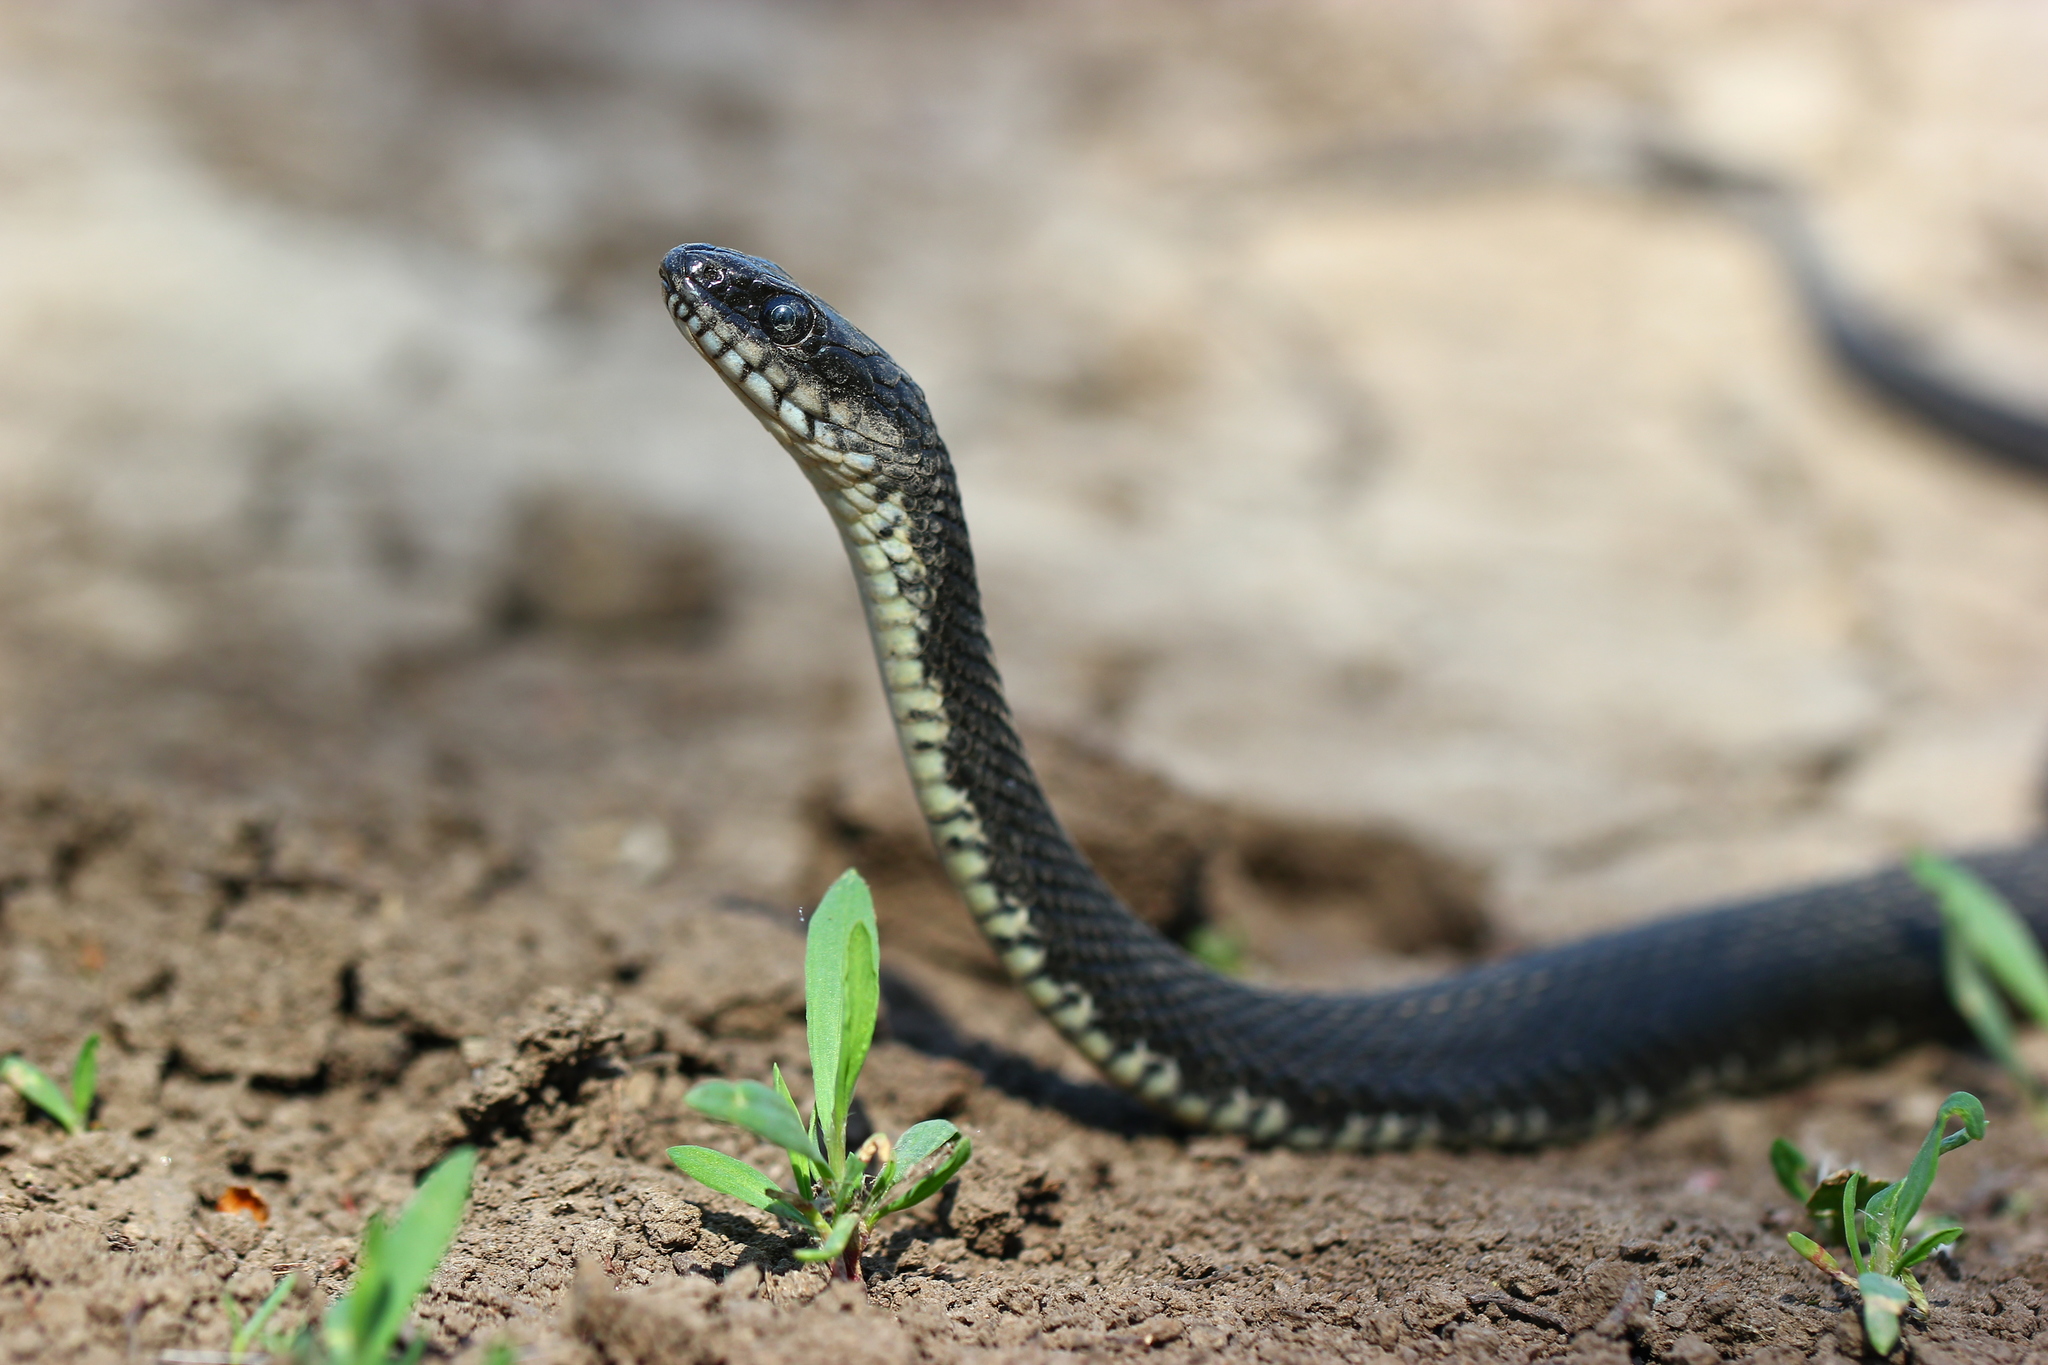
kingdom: Animalia
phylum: Chordata
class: Squamata
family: Colubridae
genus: Natrix
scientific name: Natrix tessellata
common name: Dice snake
